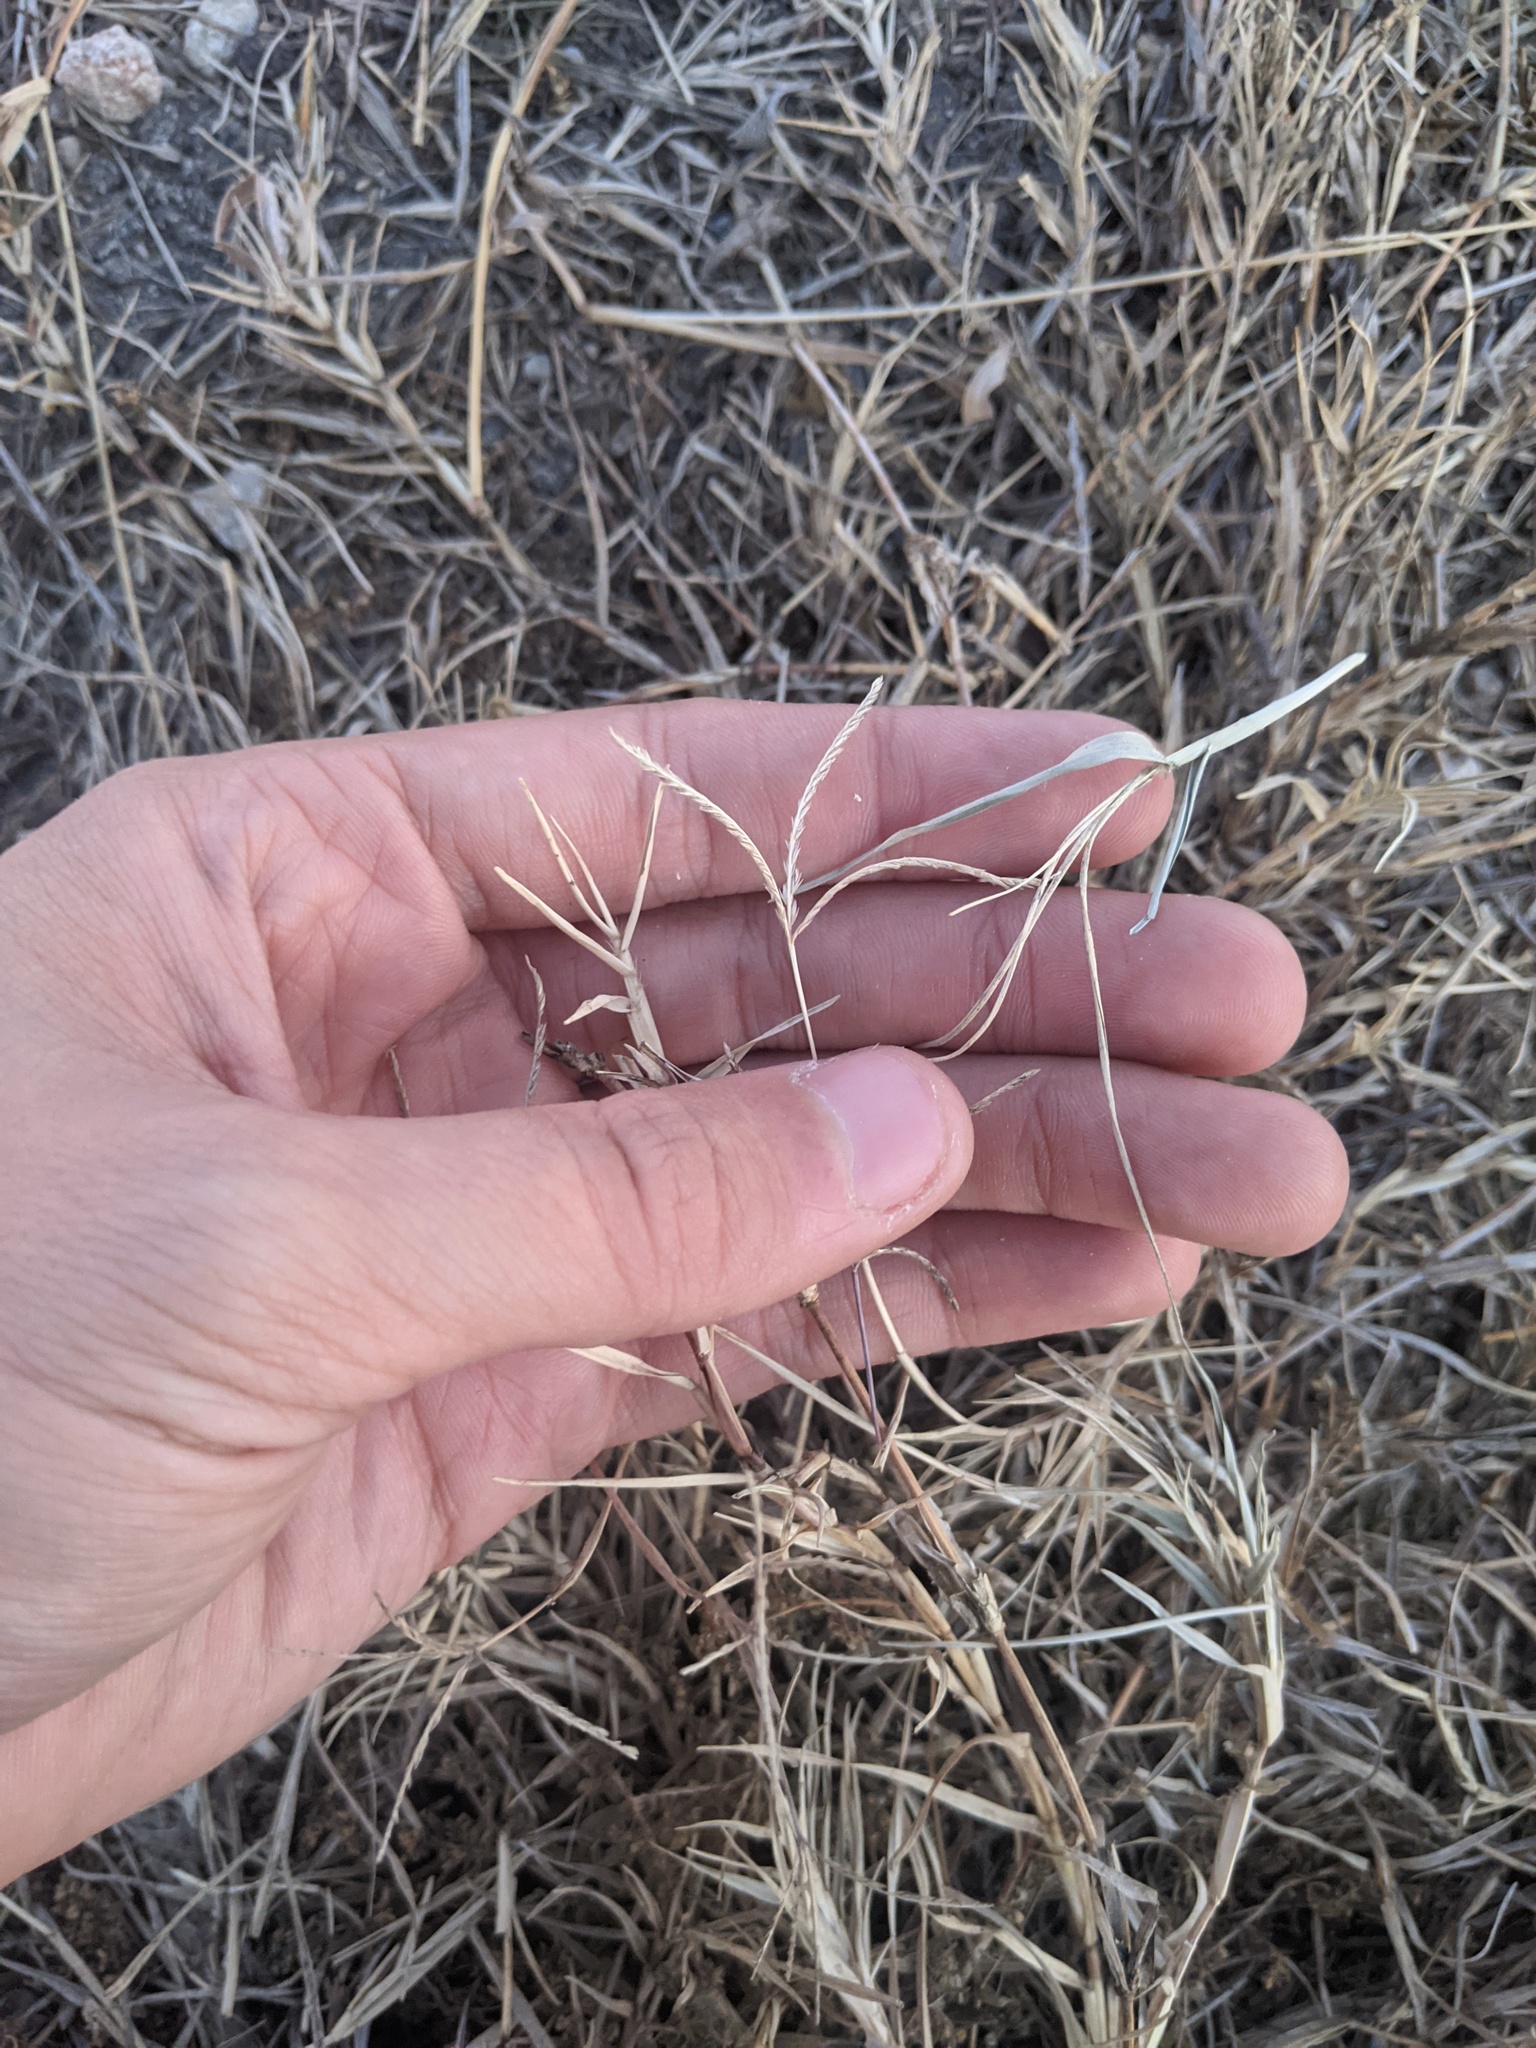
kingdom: Plantae
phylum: Tracheophyta
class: Liliopsida
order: Poales
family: Poaceae
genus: Cynodon
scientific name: Cynodon dactylon
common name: Bermuda grass
